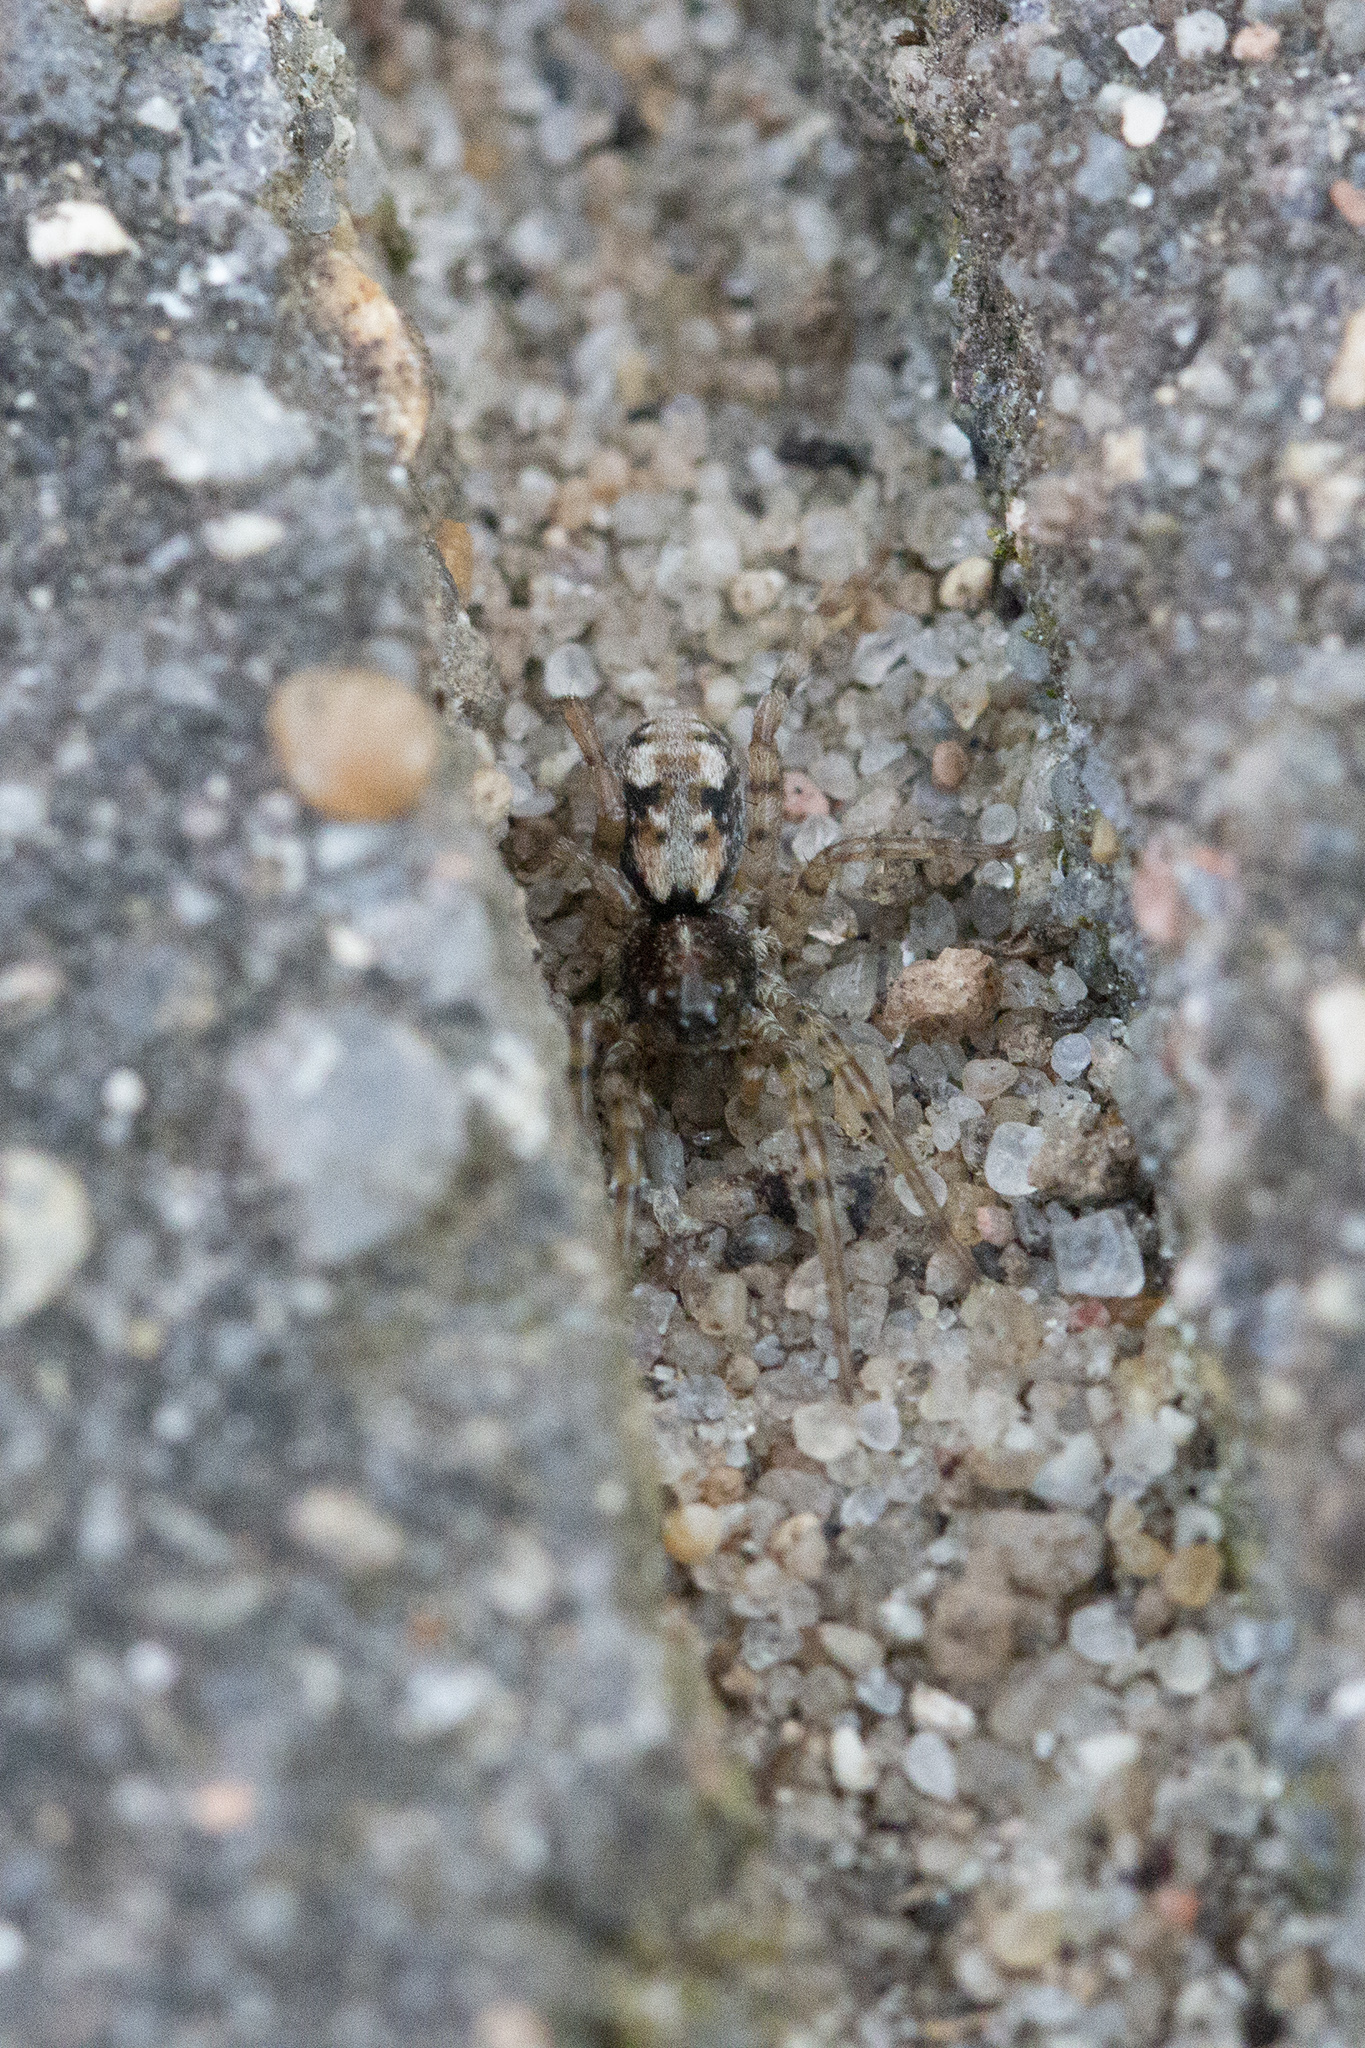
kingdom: Animalia
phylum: Arthropoda
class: Arachnida
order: Araneae
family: Lycosidae
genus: Arctosa
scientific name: Arctosa perita
